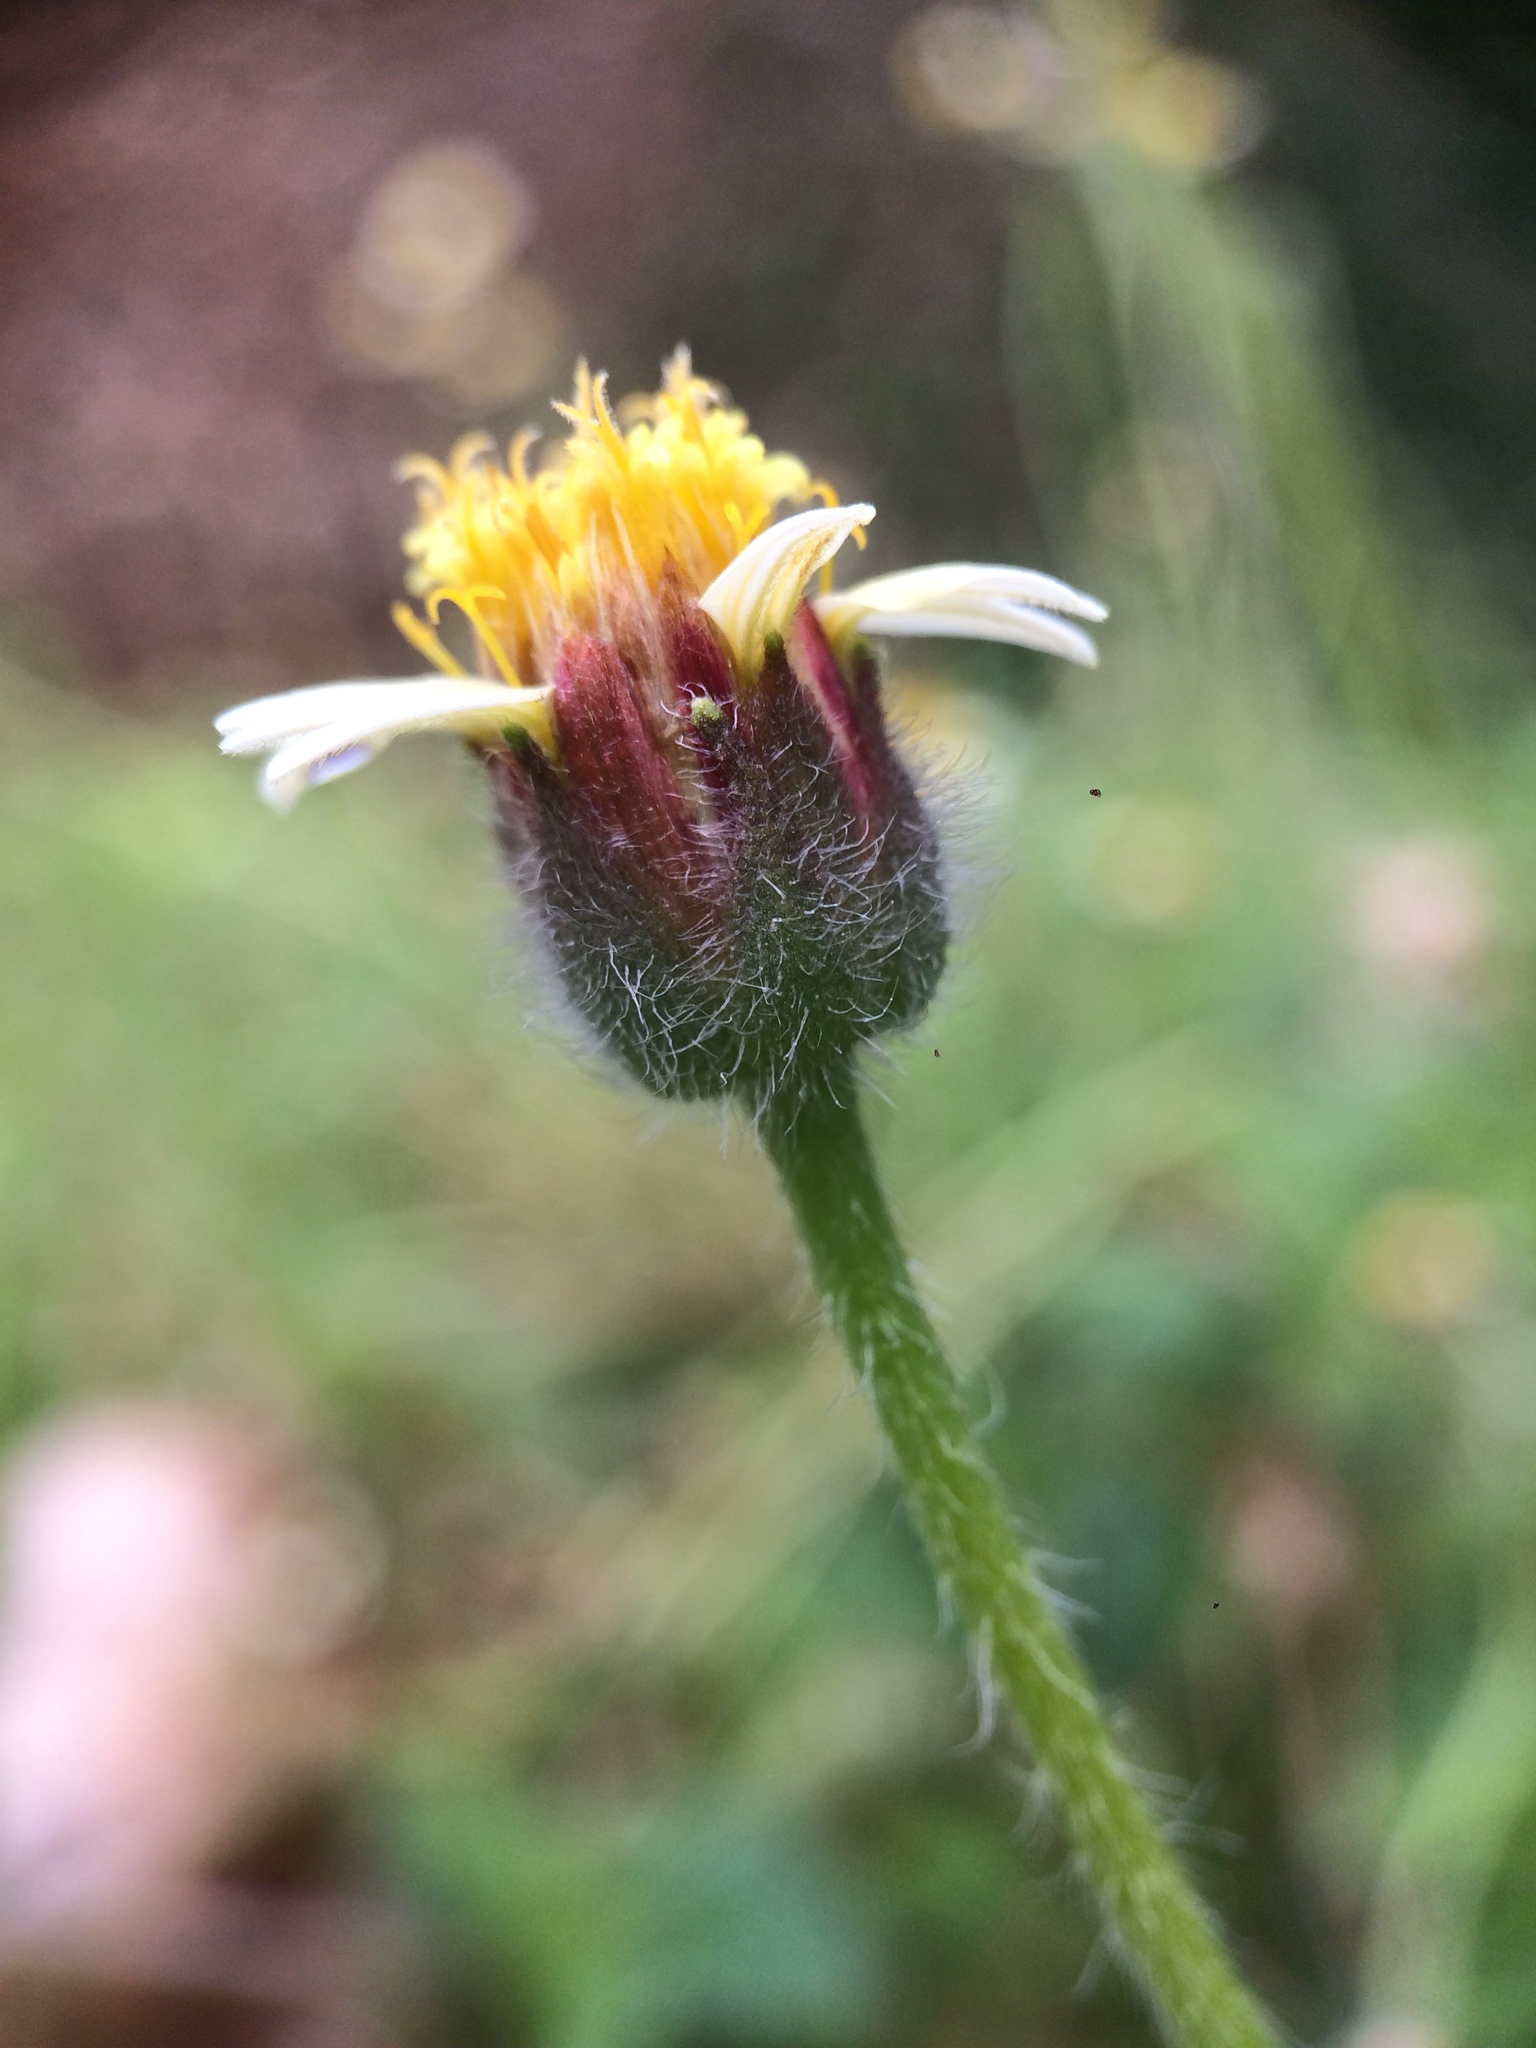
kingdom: Plantae
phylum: Tracheophyta
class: Magnoliopsida
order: Asterales
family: Asteraceae
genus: Tridax
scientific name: Tridax procumbens
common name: Coatbuttons
